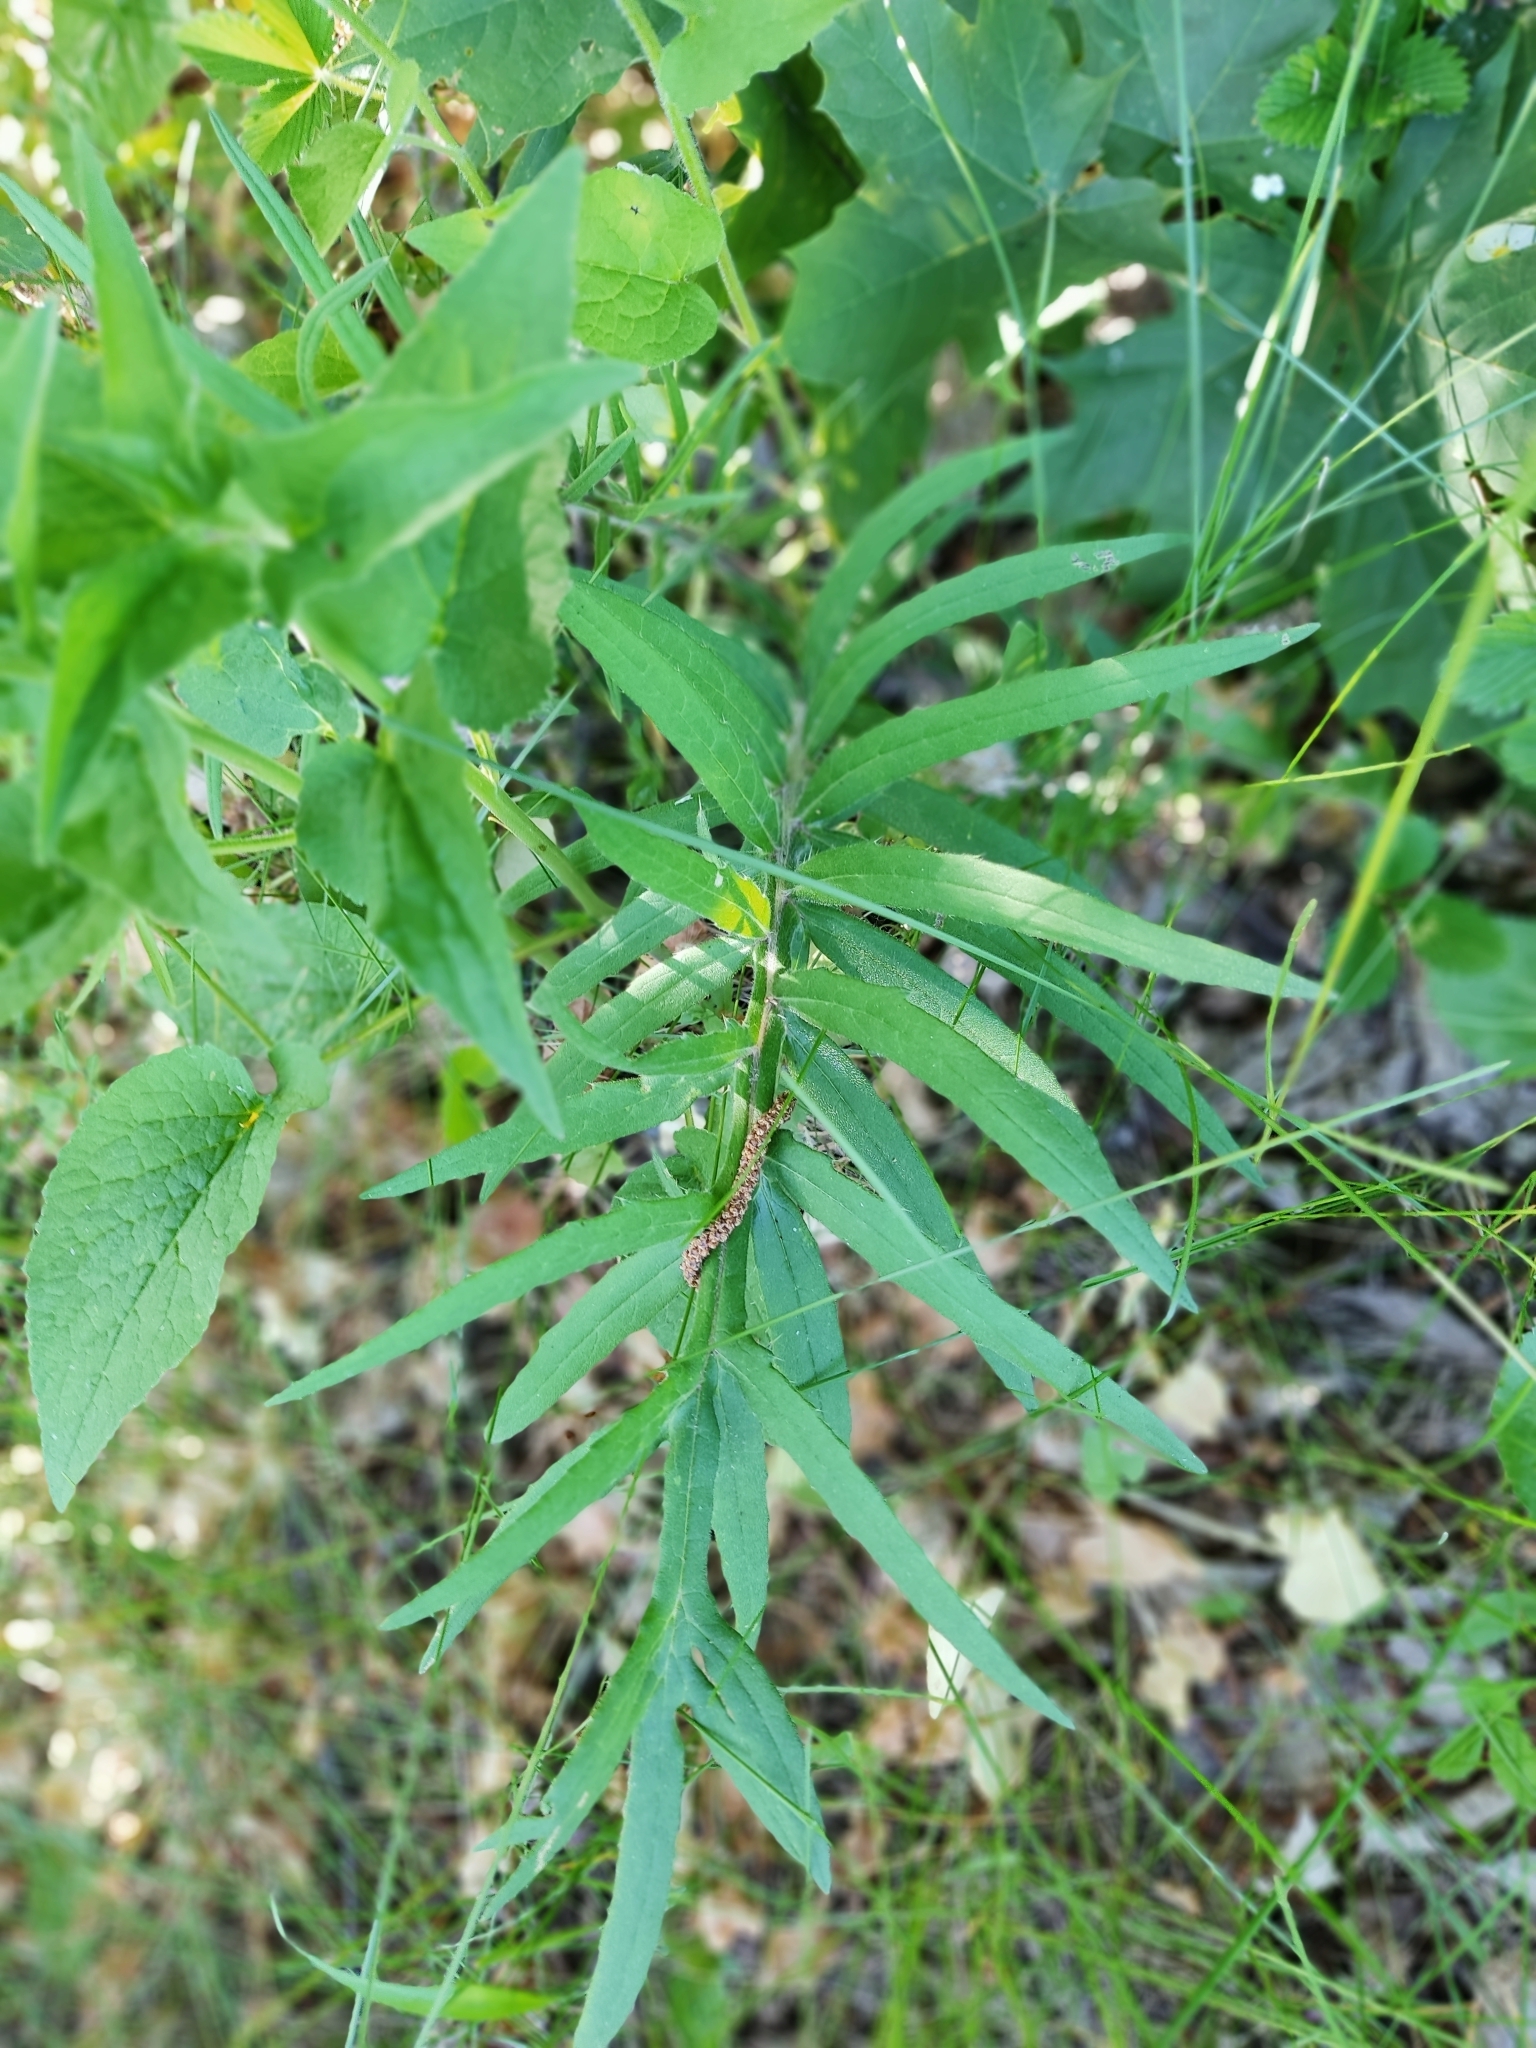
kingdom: Plantae
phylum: Tracheophyta
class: Magnoliopsida
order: Asterales
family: Asteraceae
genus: Lophiolepis
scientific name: Lophiolepis decussata
